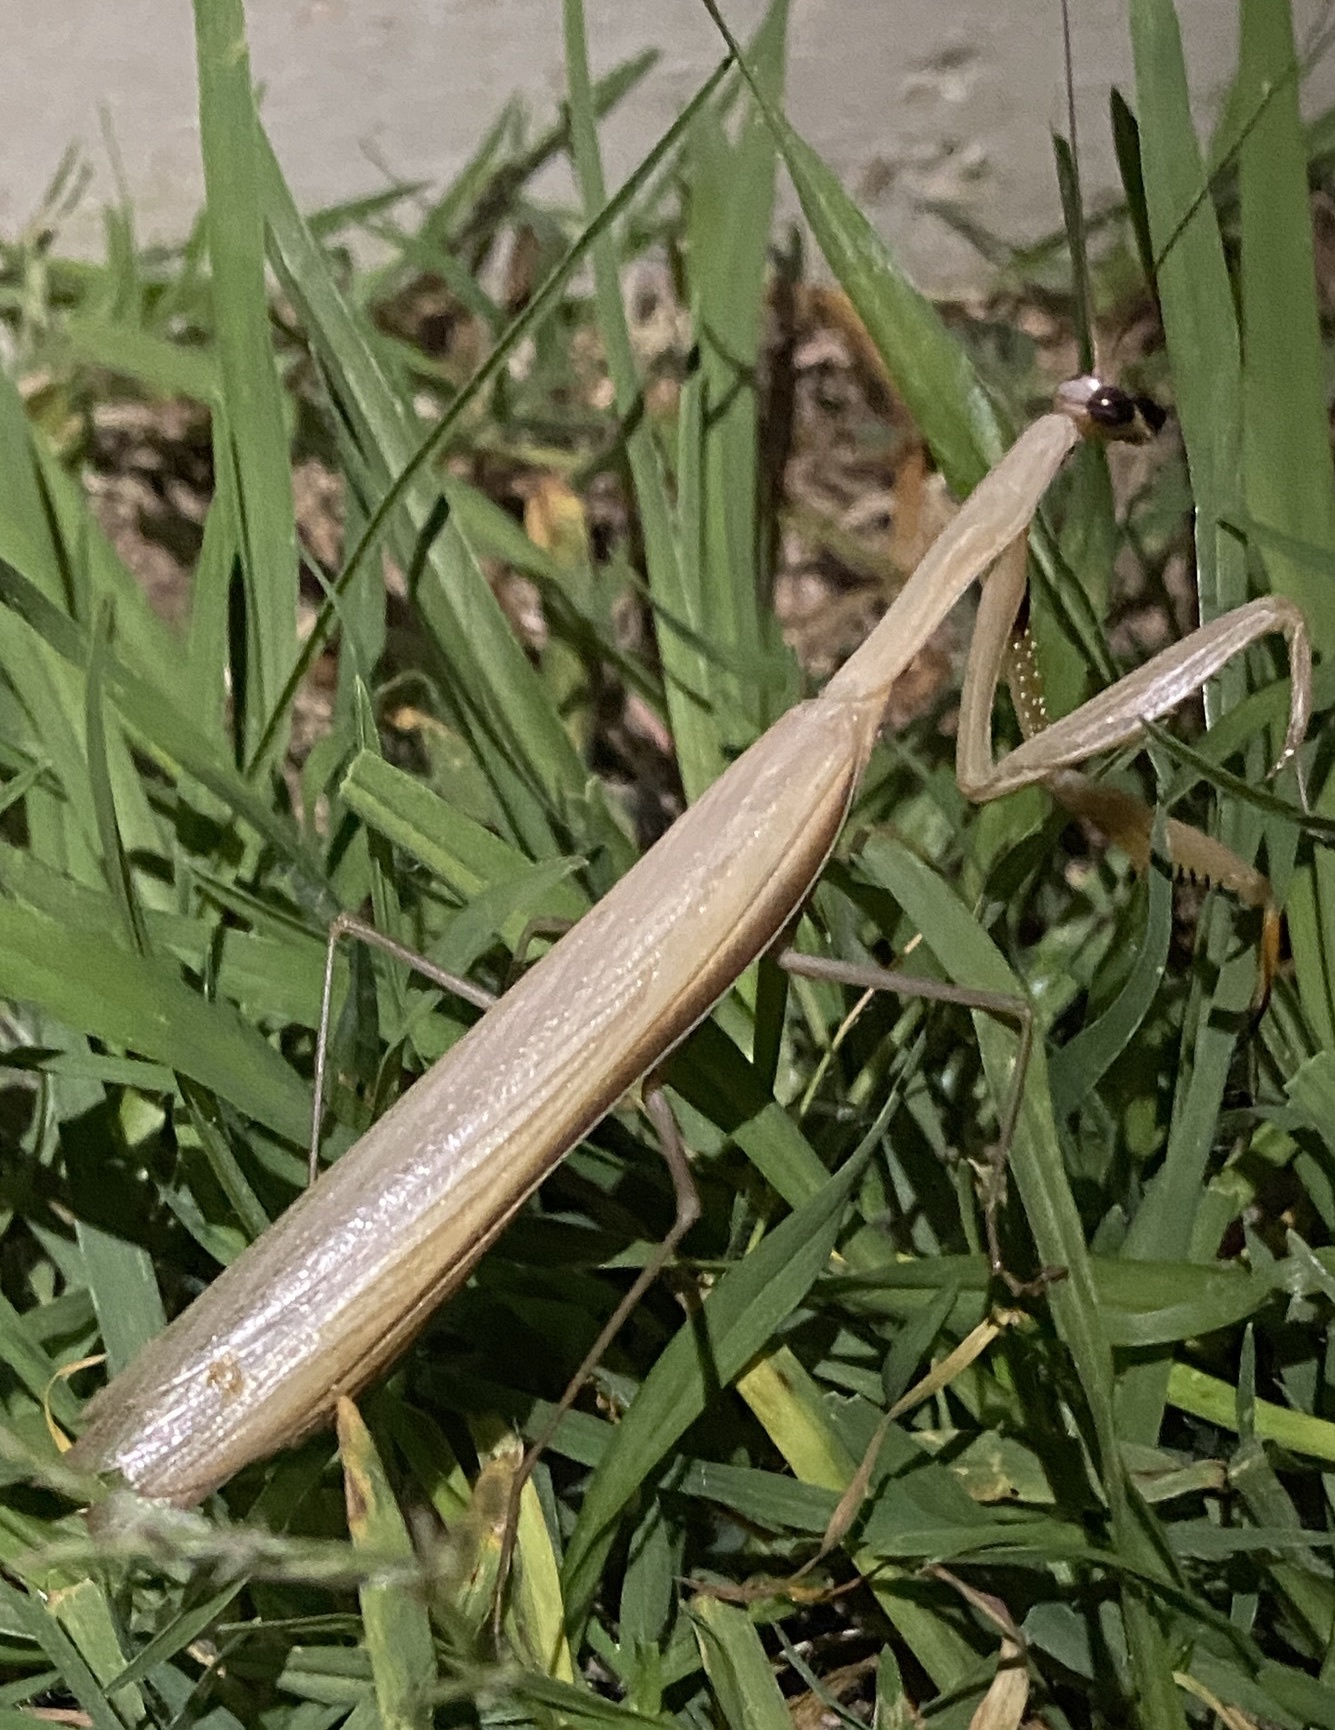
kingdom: Animalia
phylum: Arthropoda
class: Insecta
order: Mantodea
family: Mantidae
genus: Mantis
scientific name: Mantis religiosa
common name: Praying mantis
